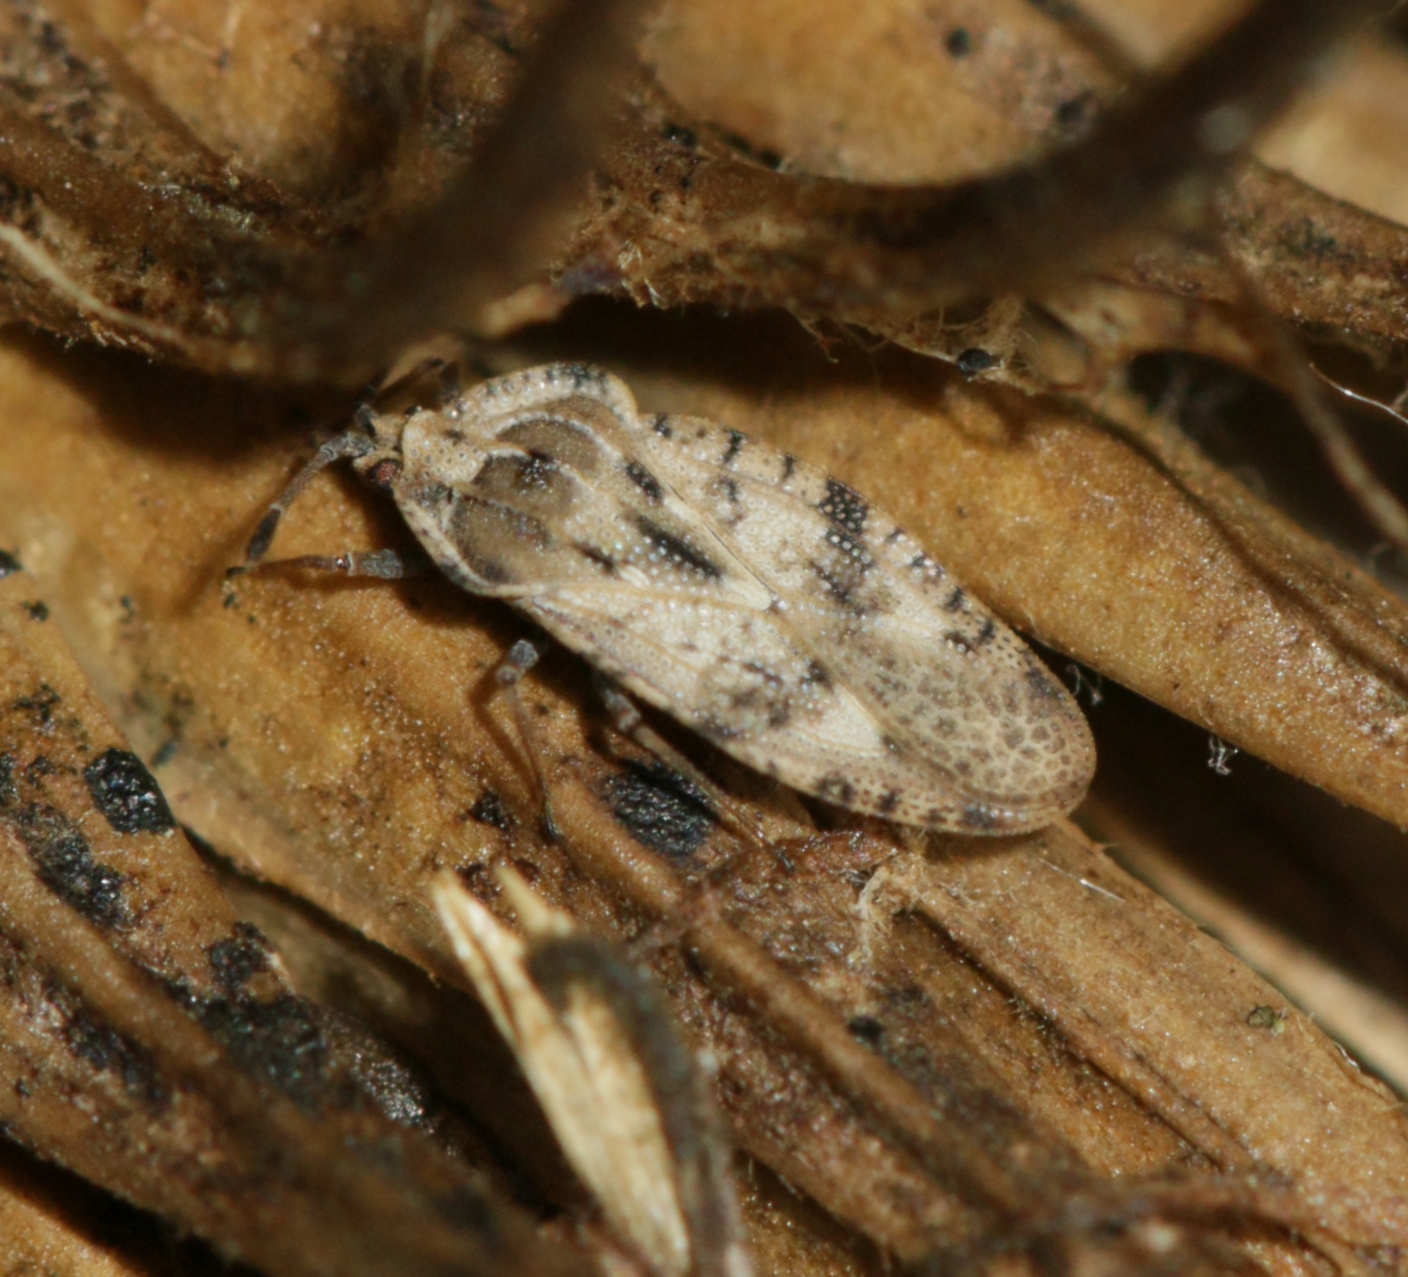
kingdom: Animalia
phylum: Arthropoda
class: Insecta
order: Hemiptera
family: Tingidae
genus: Tingis
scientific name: Tingis cardui
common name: Spear thistle lacebug
